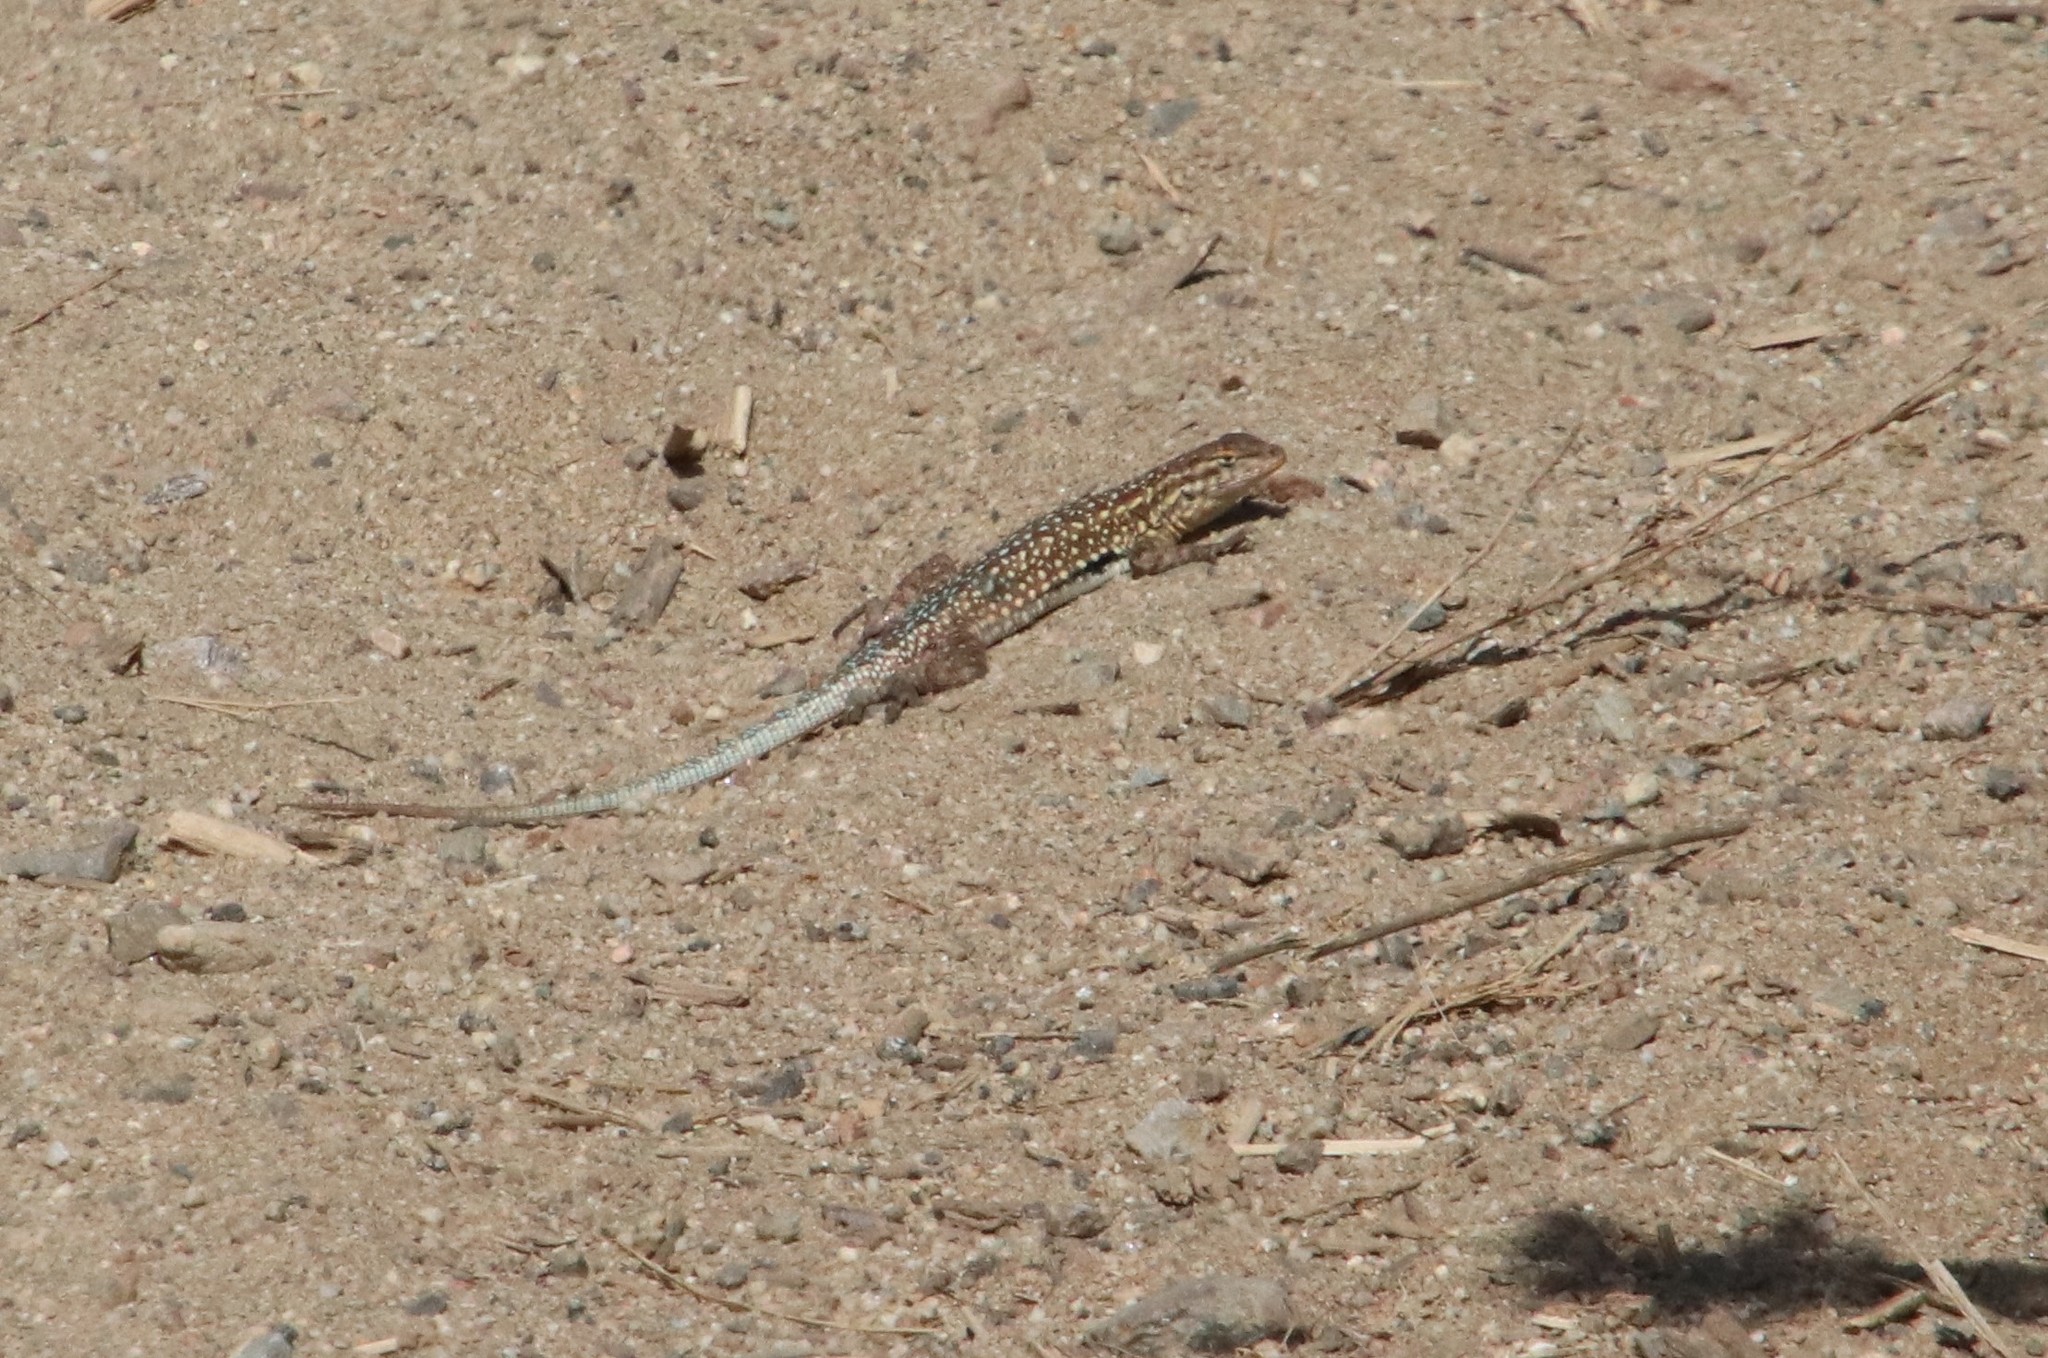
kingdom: Animalia
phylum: Chordata
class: Squamata
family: Phrynosomatidae
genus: Uta
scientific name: Uta stansburiana
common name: Side-blotched lizard
